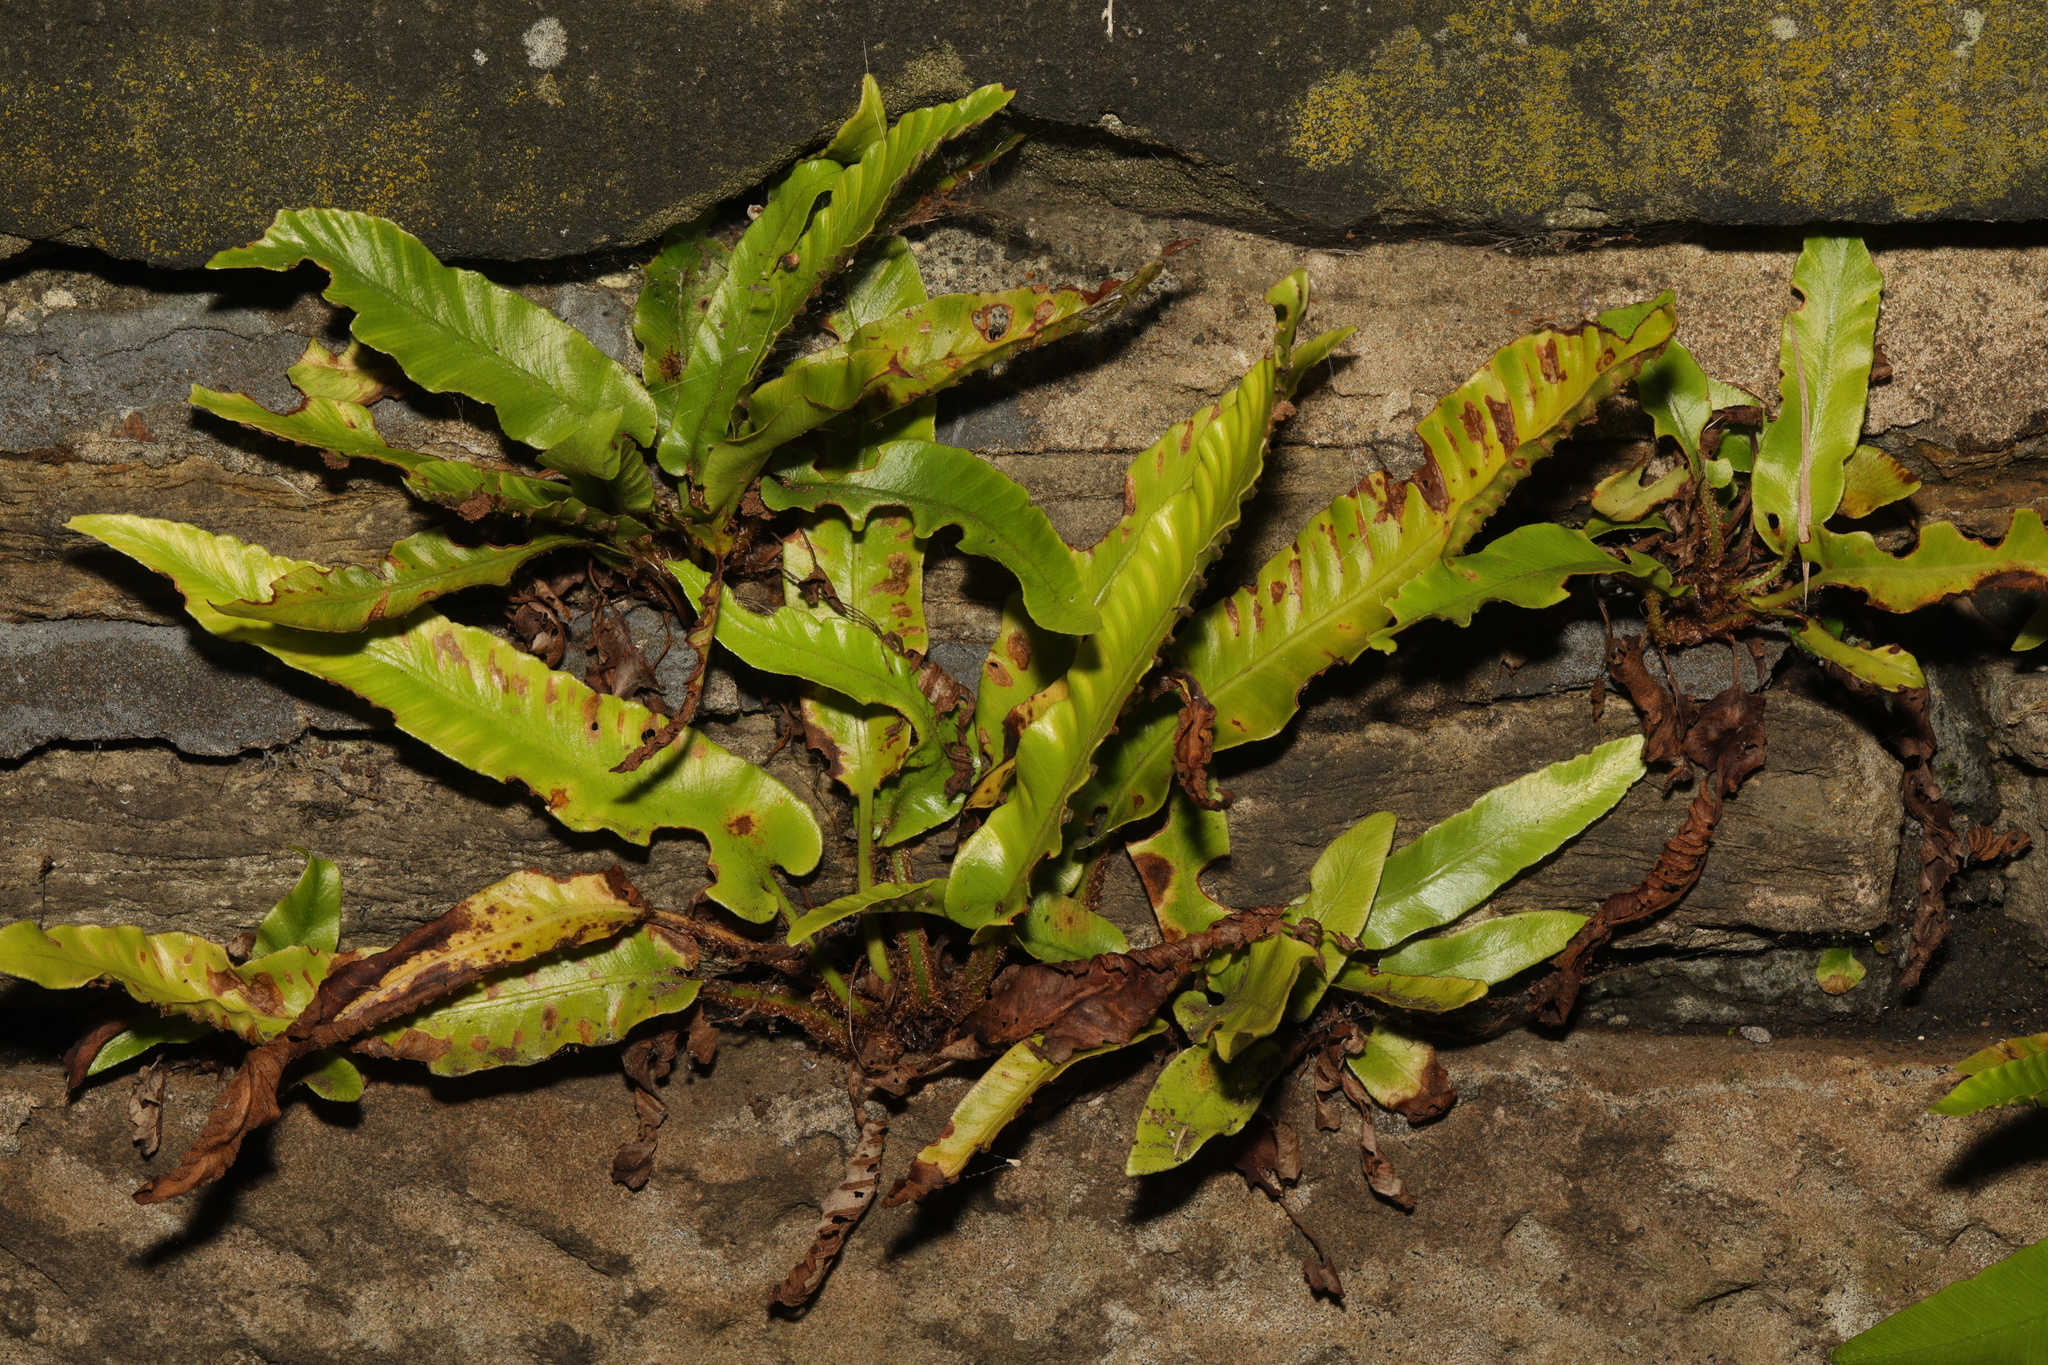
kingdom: Plantae
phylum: Tracheophyta
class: Polypodiopsida
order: Polypodiales
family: Aspleniaceae
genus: Asplenium
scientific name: Asplenium scolopendrium
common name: Hart's-tongue fern
